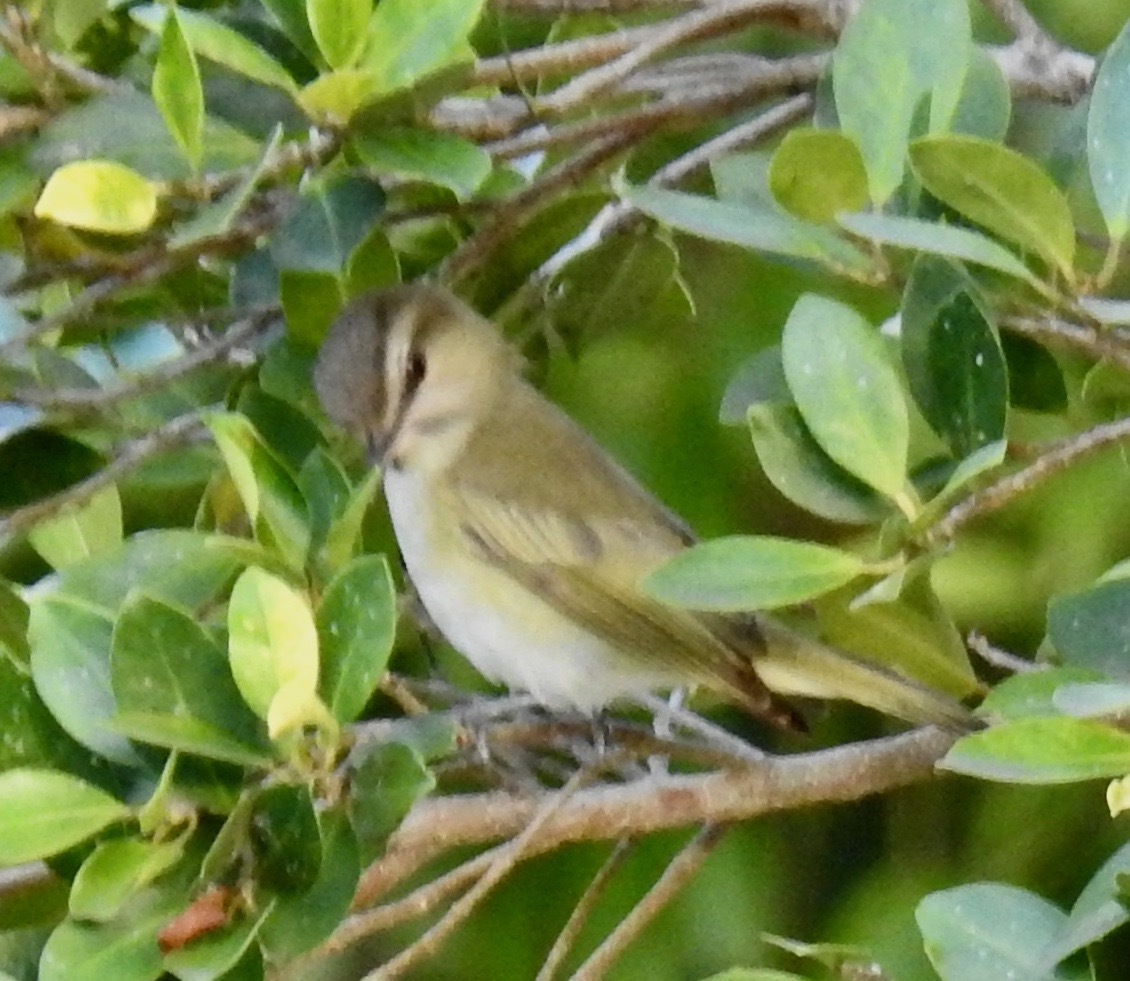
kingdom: Animalia
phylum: Chordata
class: Aves
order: Passeriformes
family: Vireonidae
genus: Vireo
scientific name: Vireo altiloquus
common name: Black-whiskered vireo
